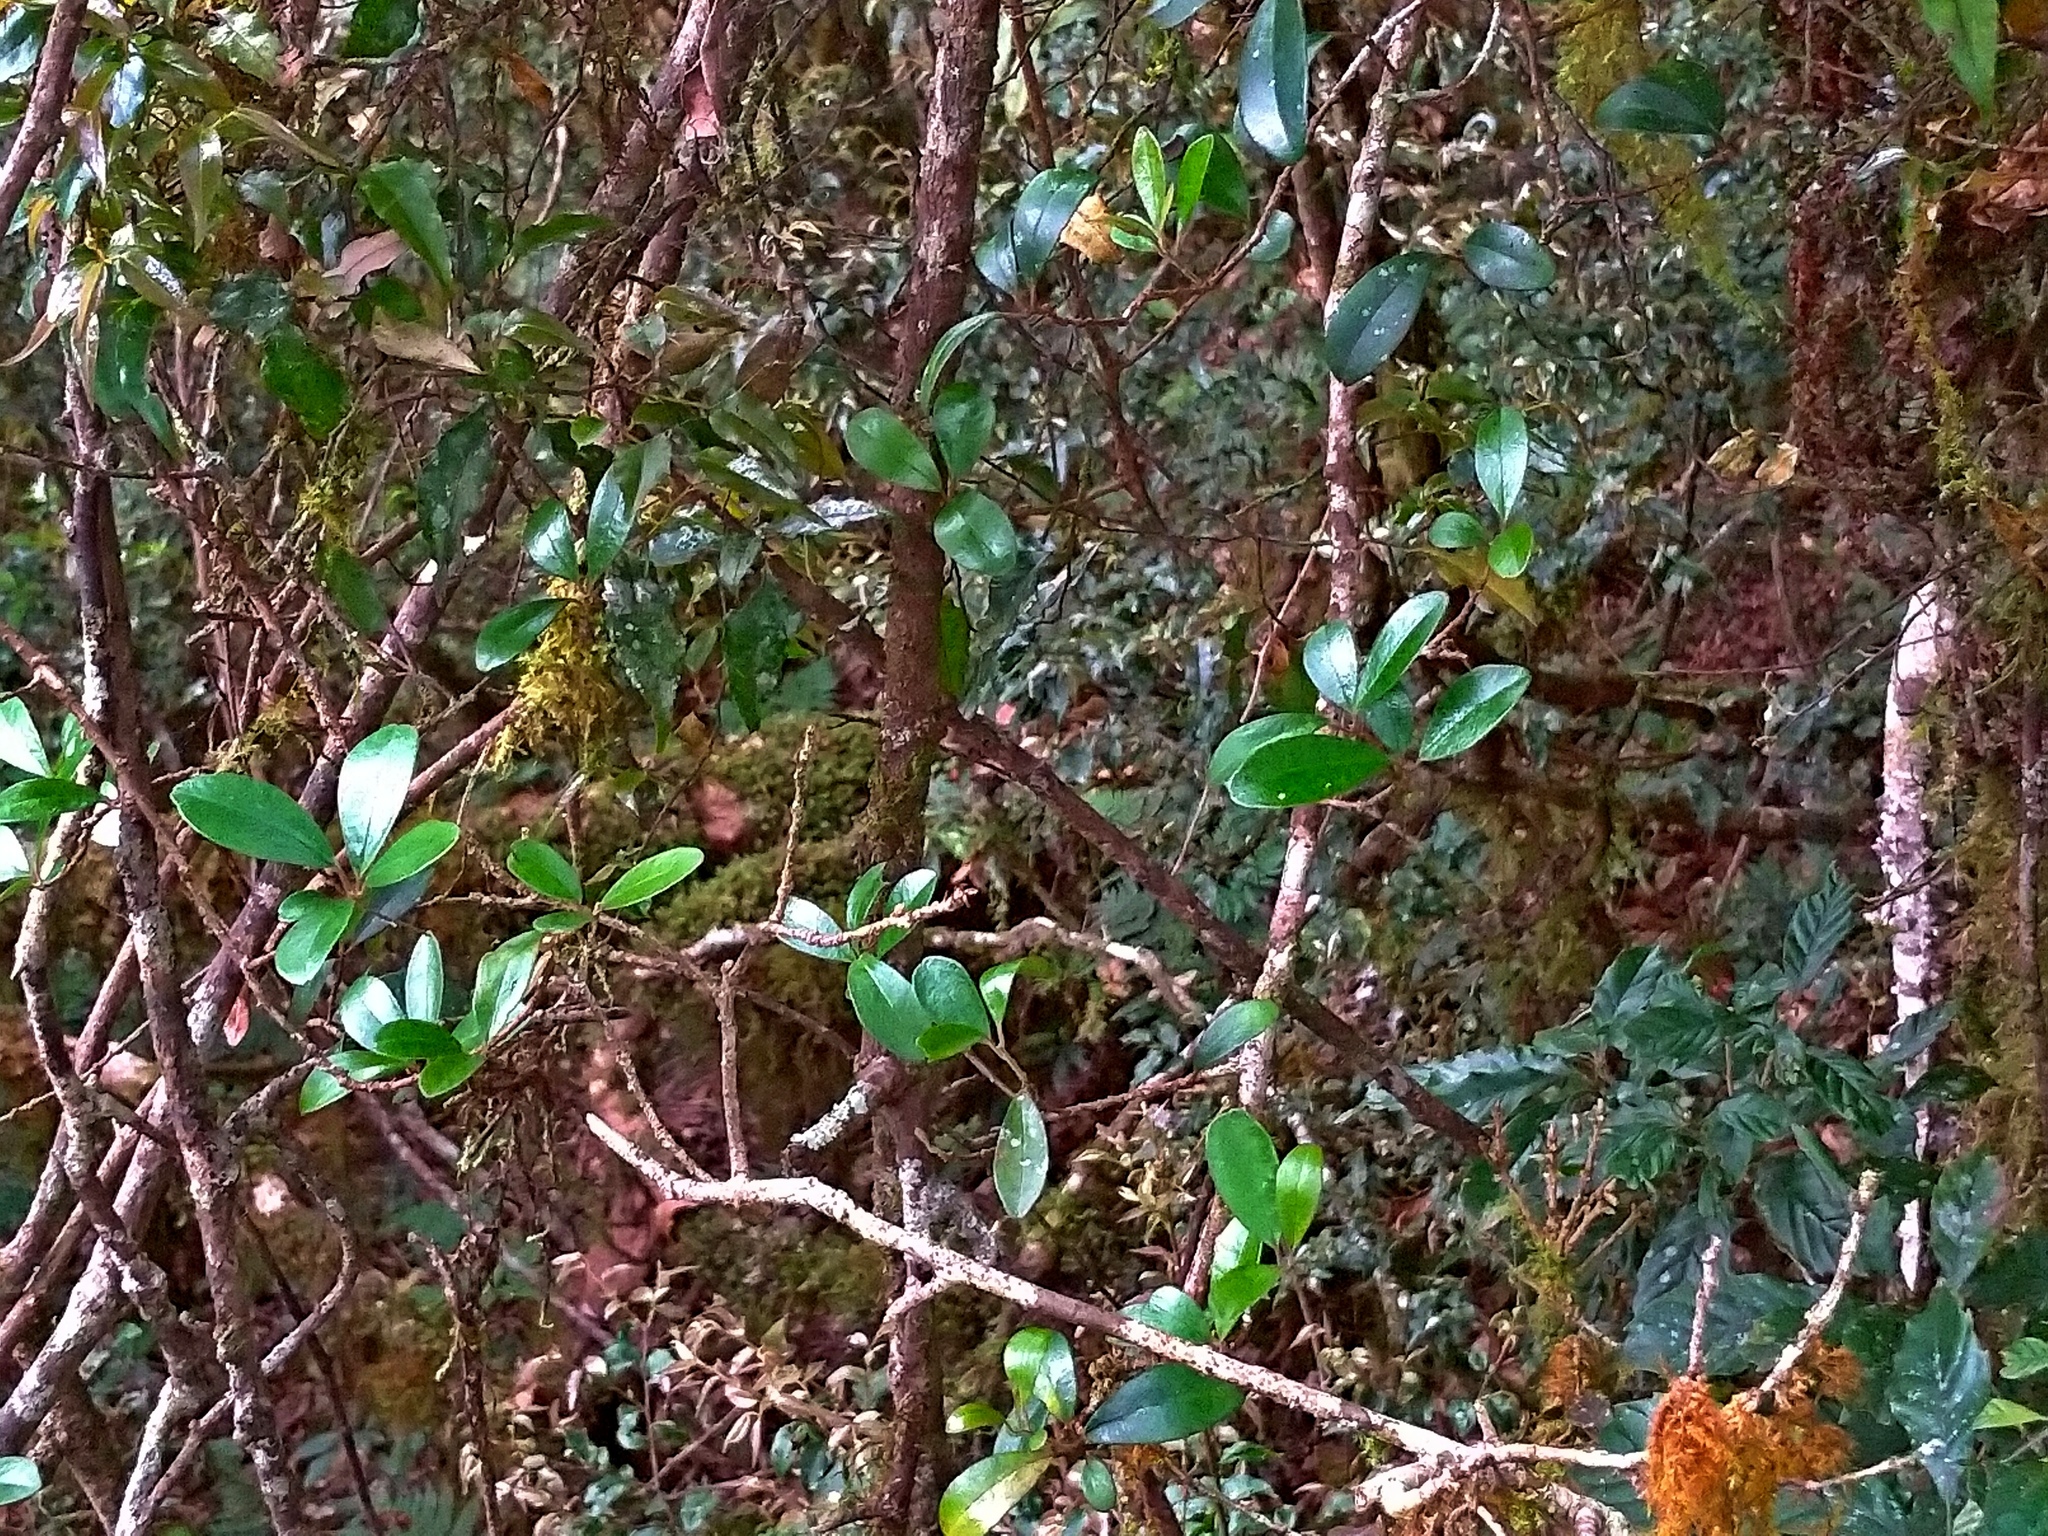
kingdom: Plantae
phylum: Tracheophyta
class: Magnoliopsida
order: Ericales
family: Primulaceae
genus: Embelia
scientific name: Embelia laeta
